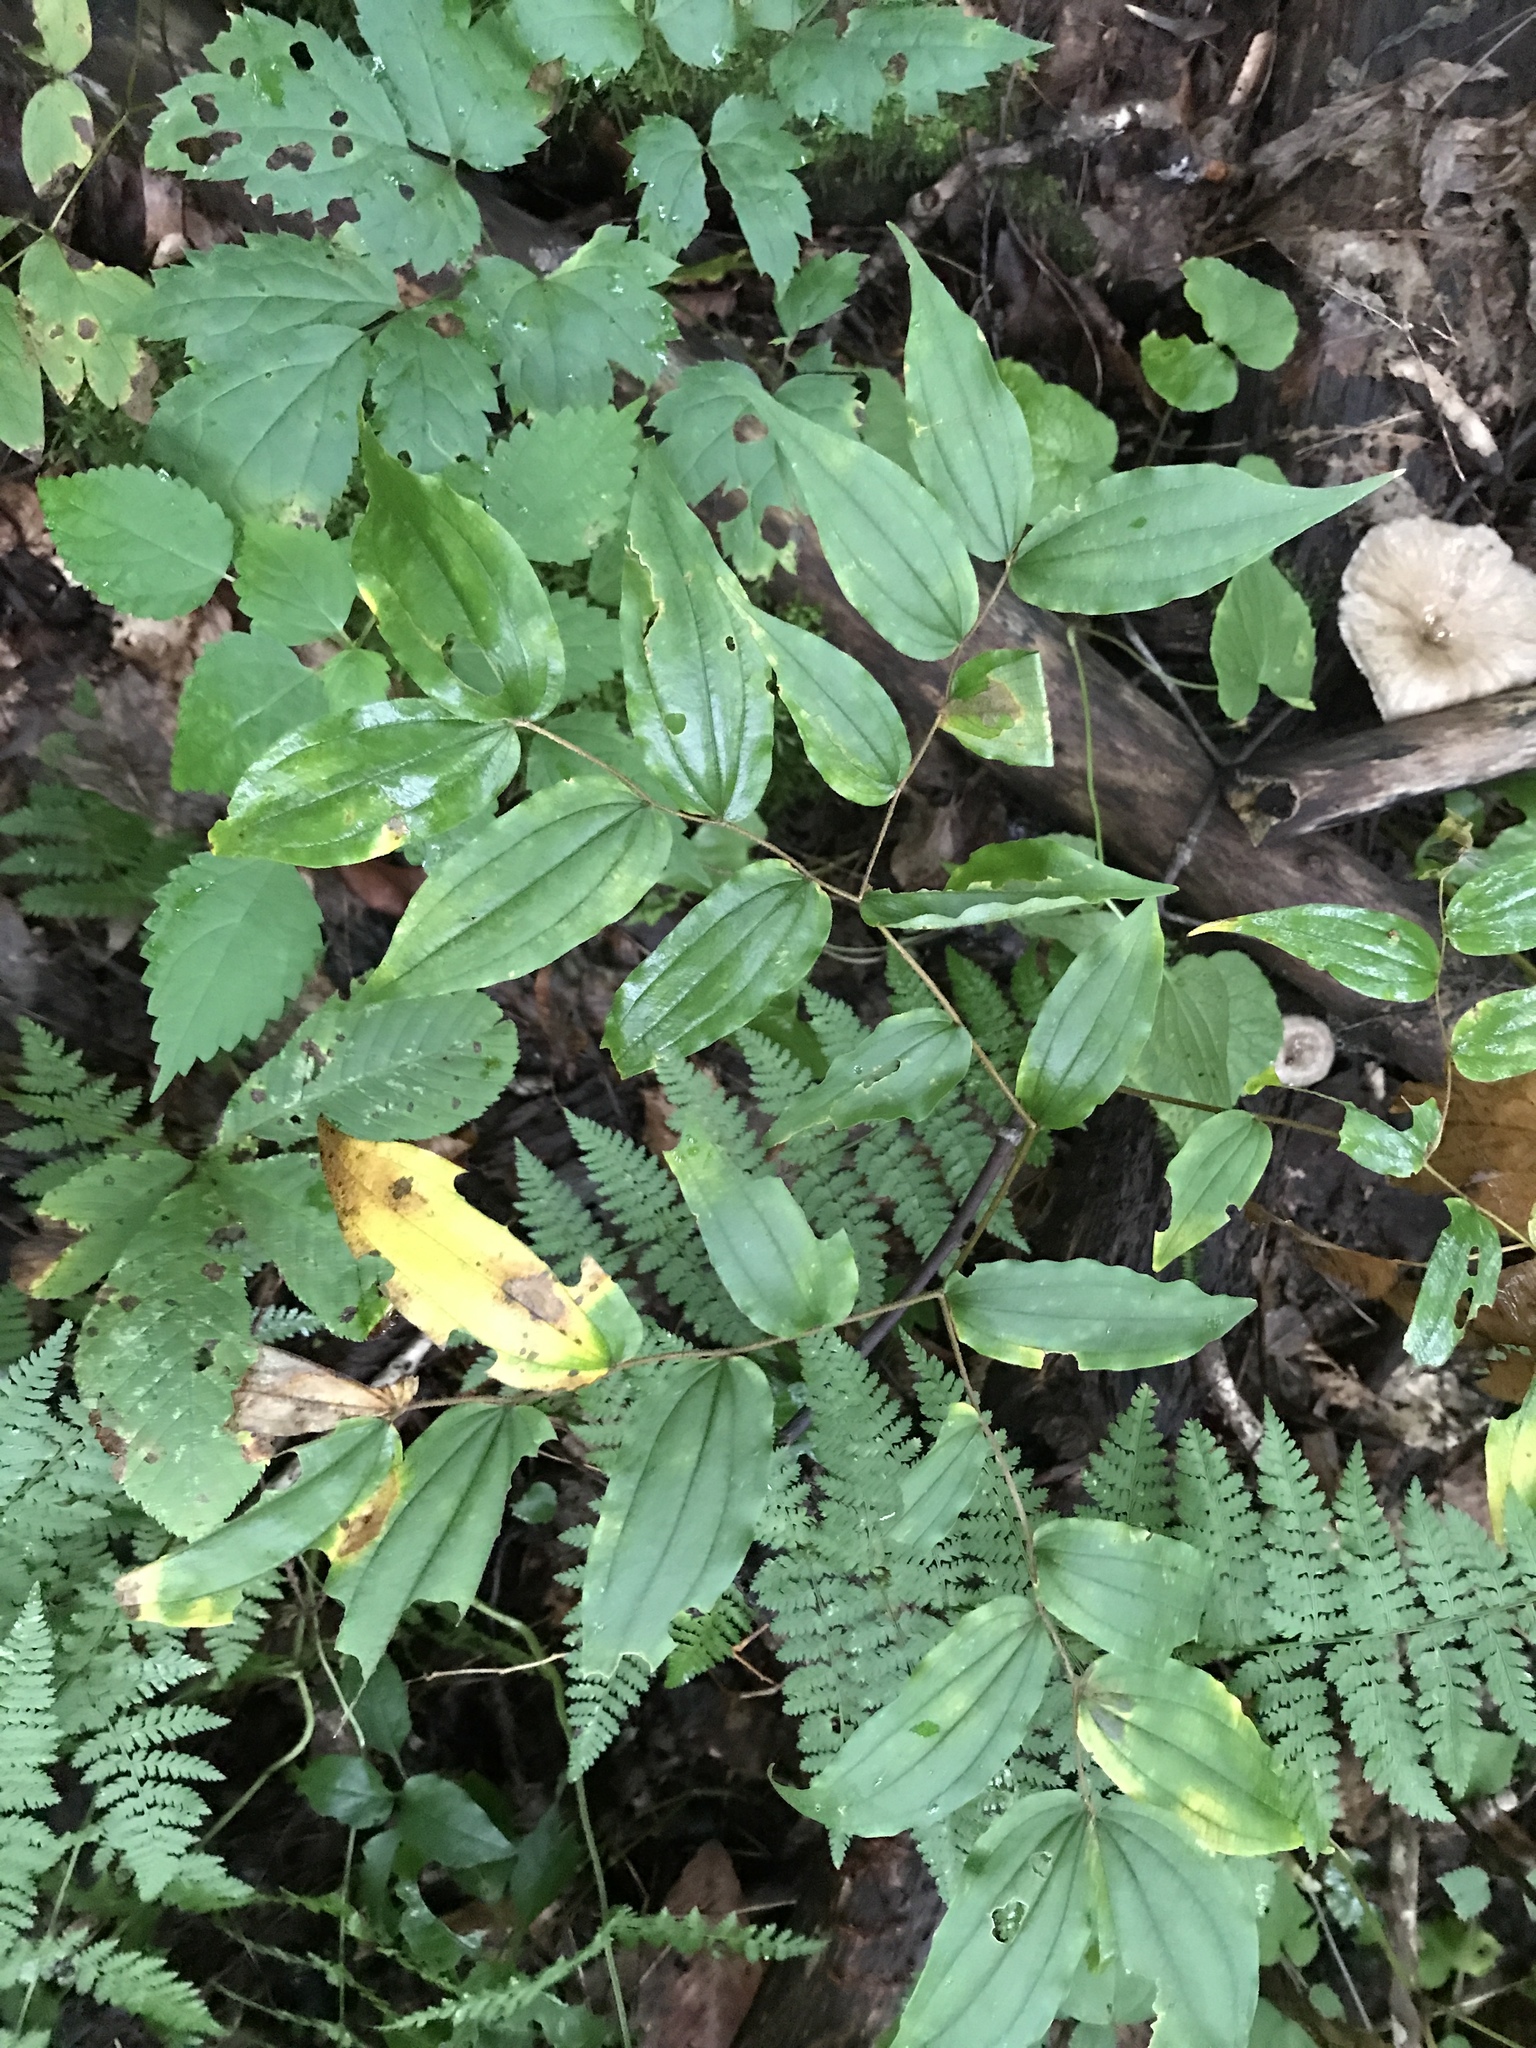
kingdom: Plantae
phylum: Tracheophyta
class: Liliopsida
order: Liliales
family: Liliaceae
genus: Prosartes
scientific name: Prosartes lanuginosa
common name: Hairy mandarin
